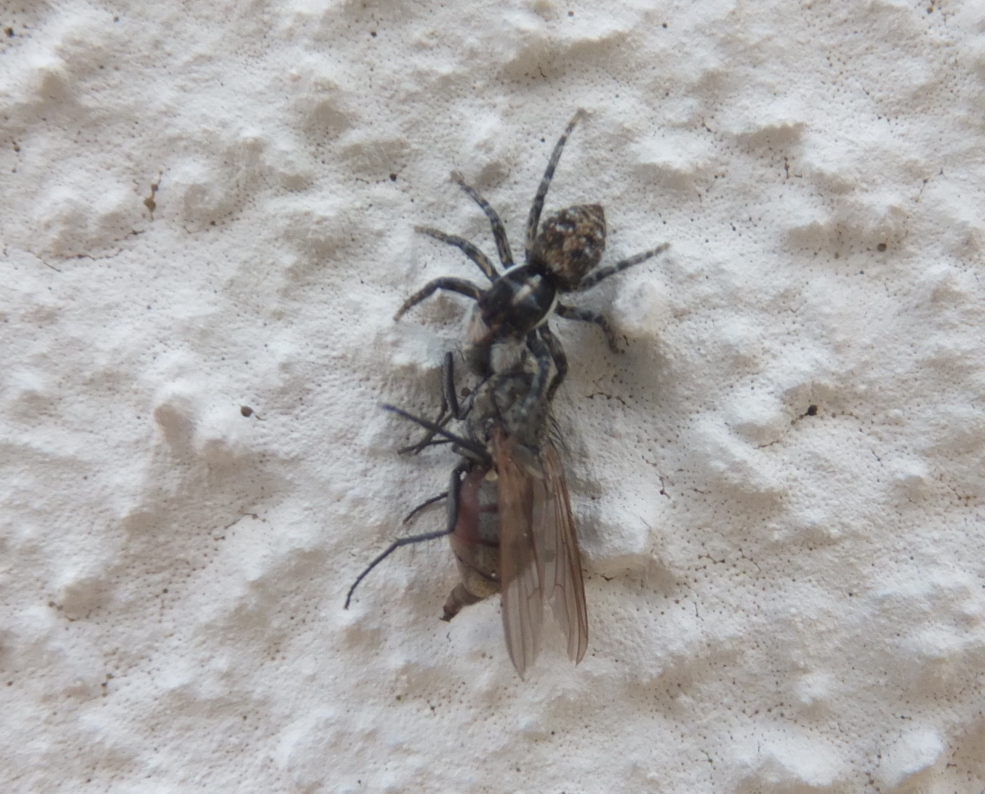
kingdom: Animalia
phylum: Arthropoda
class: Arachnida
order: Araneae
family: Salticidae
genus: Menemerus
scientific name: Menemerus semilimbatus
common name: Jumping spider
